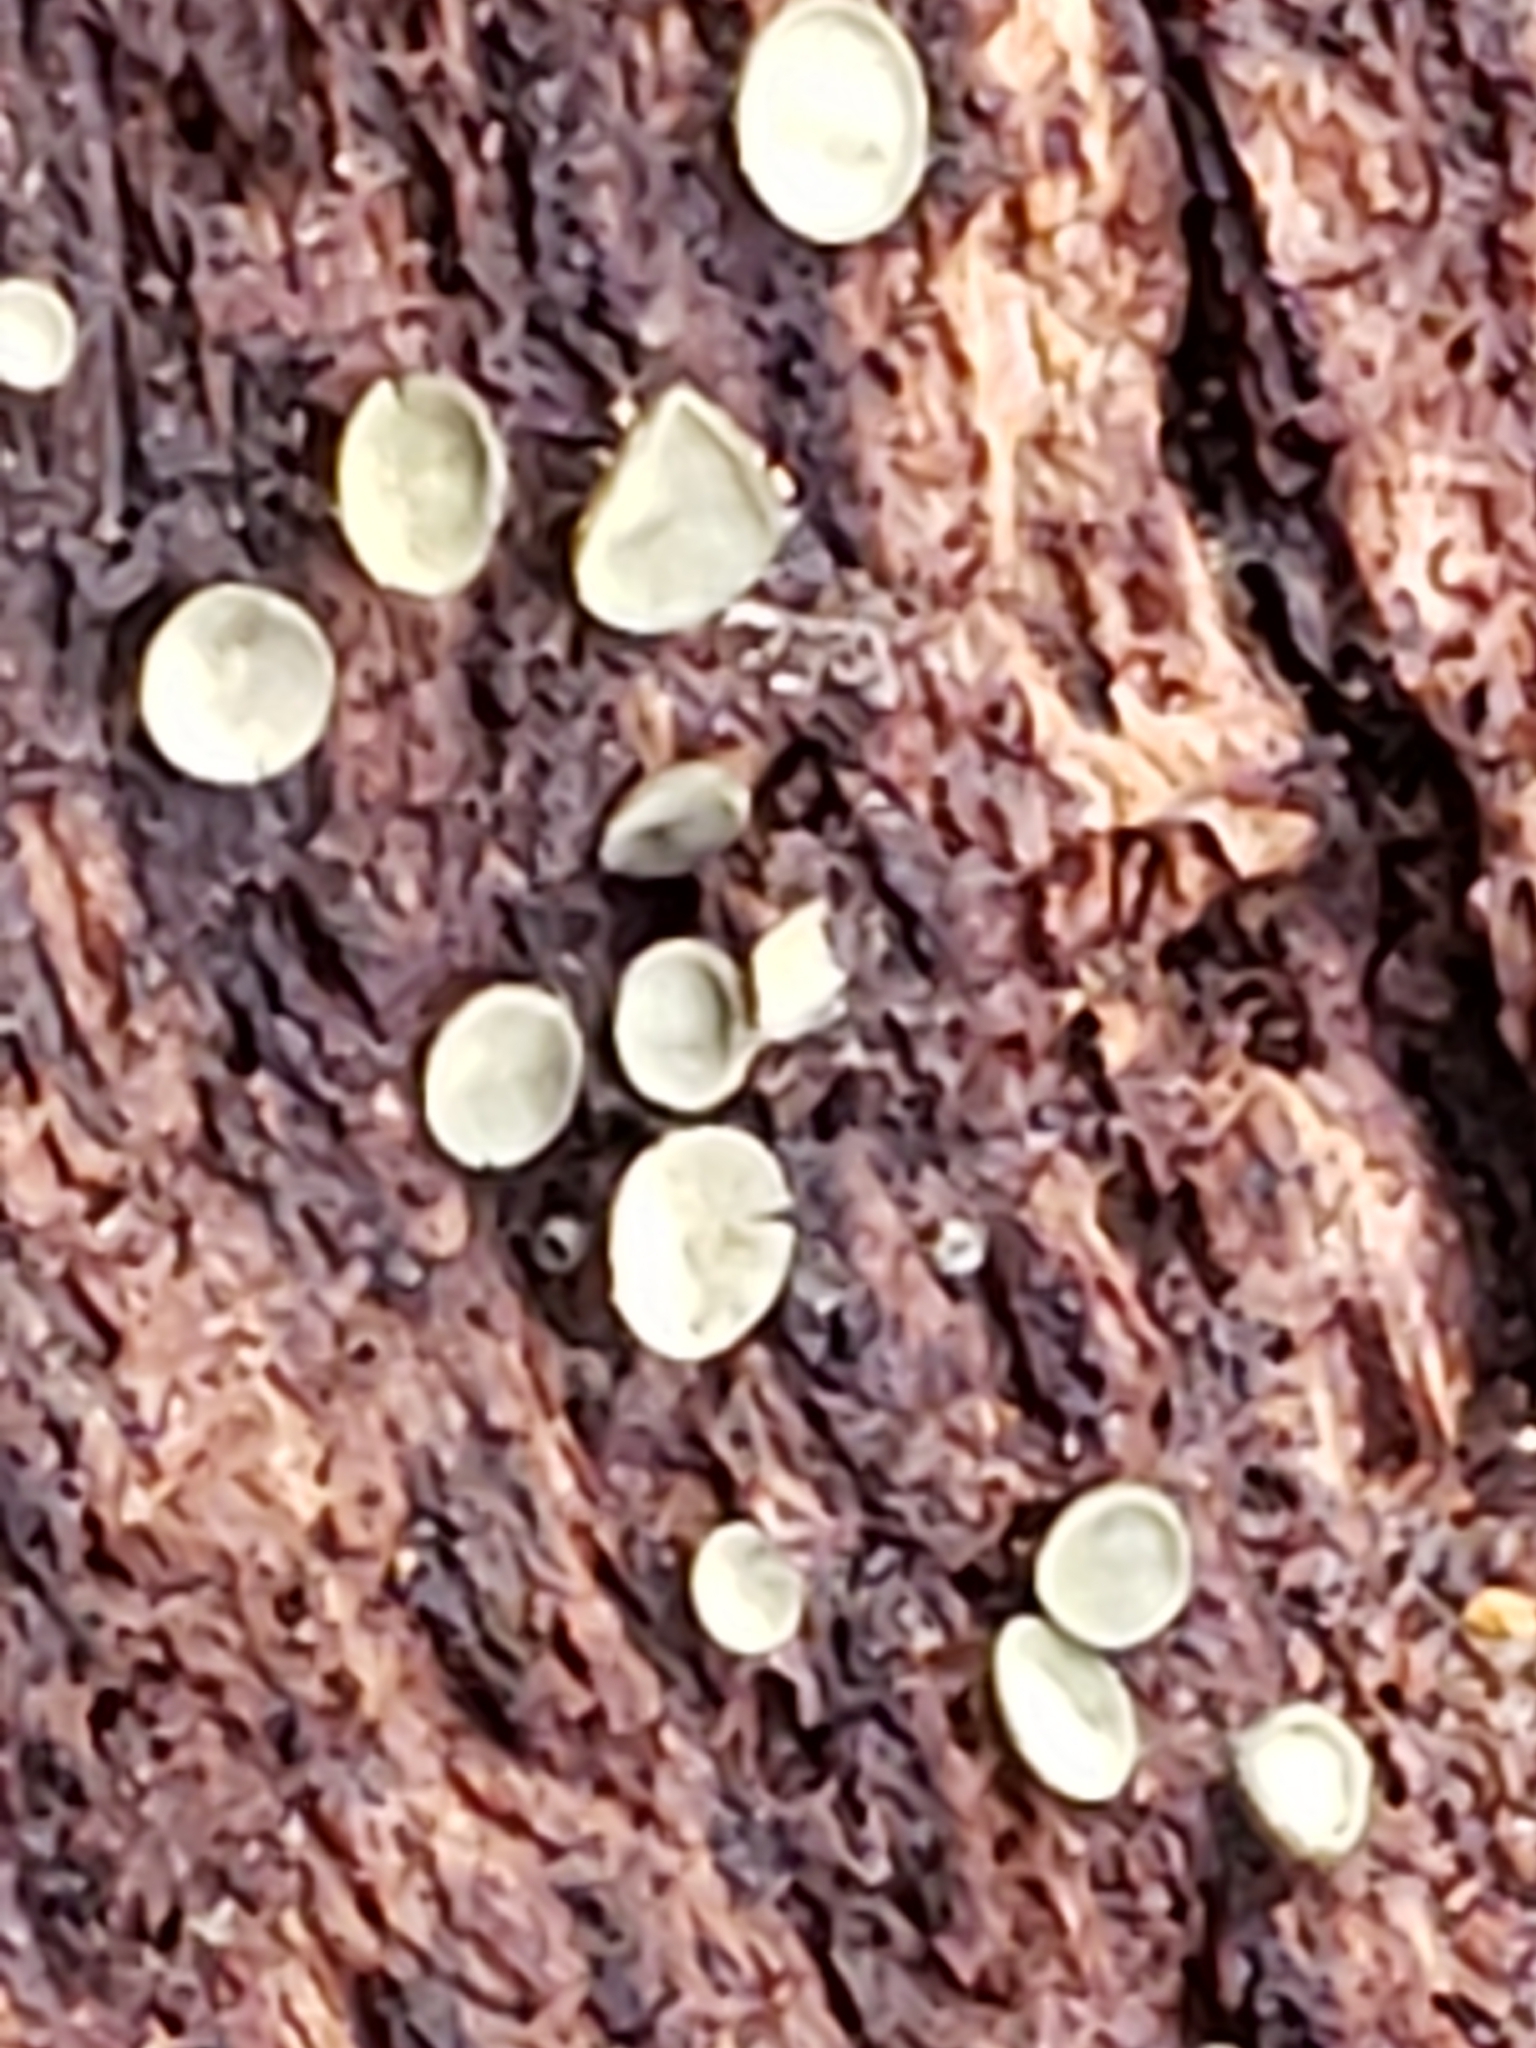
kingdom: Fungi
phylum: Ascomycota
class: Leotiomycetes
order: Helotiales
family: Chlorospleniaceae
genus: Chlorosplenium
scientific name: Chlorosplenium chlora
